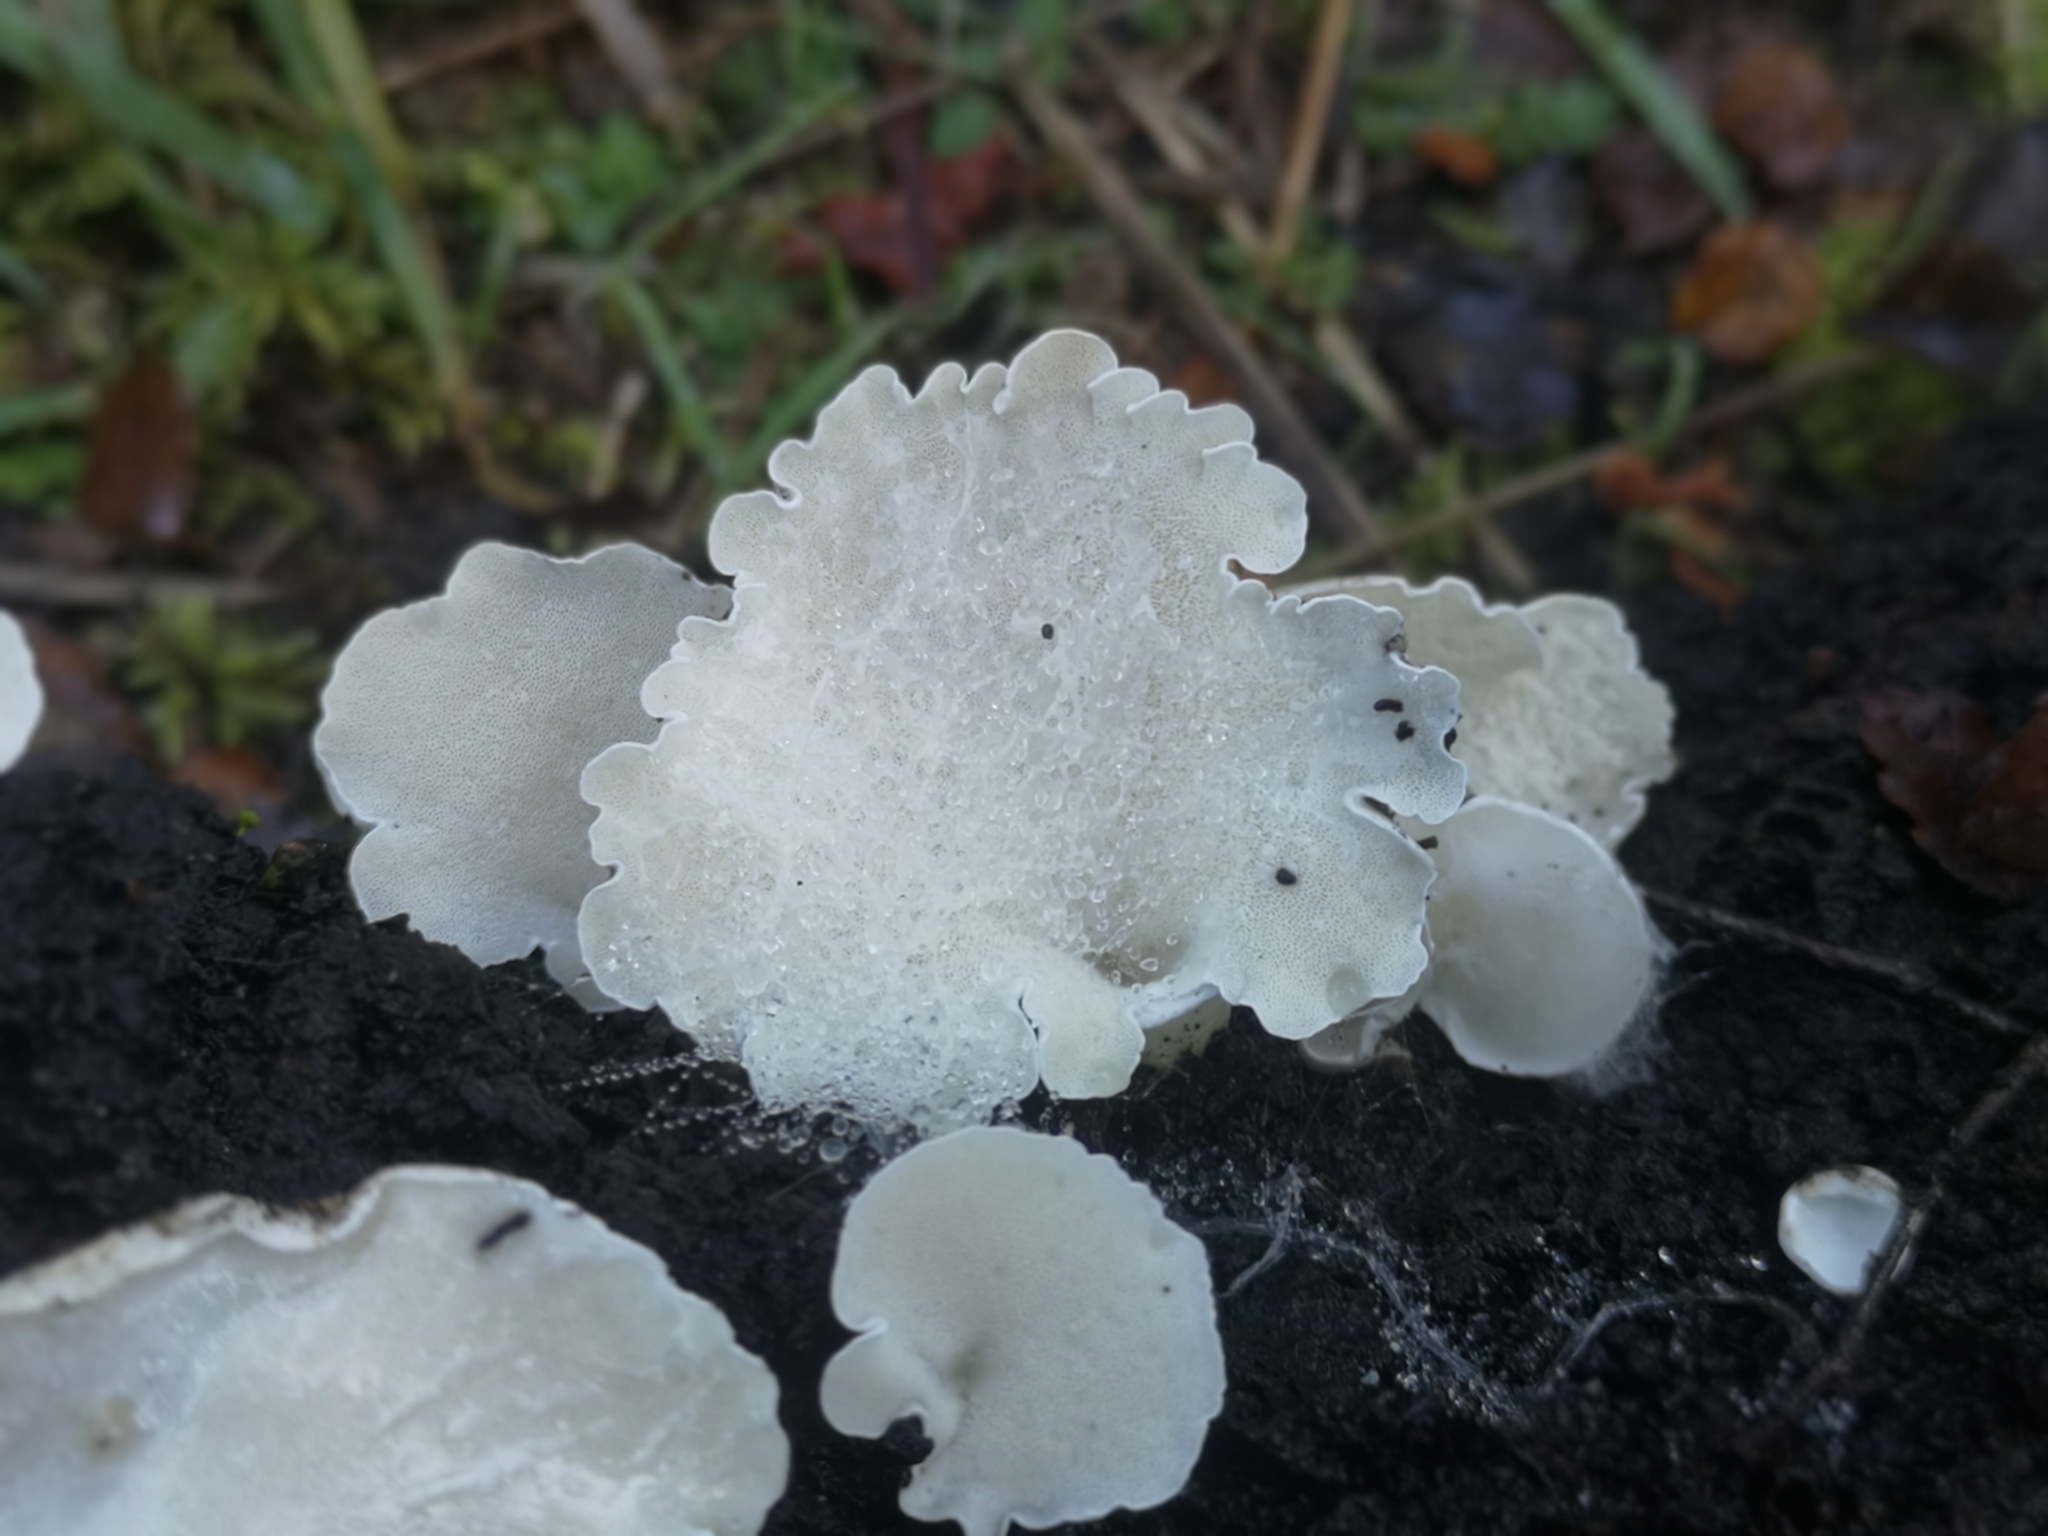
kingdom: Fungi
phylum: Basidiomycota
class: Agaricomycetes
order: Polyporales
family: Irpicaceae
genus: Gloeoporus
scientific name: Gloeoporus phlebophorus
